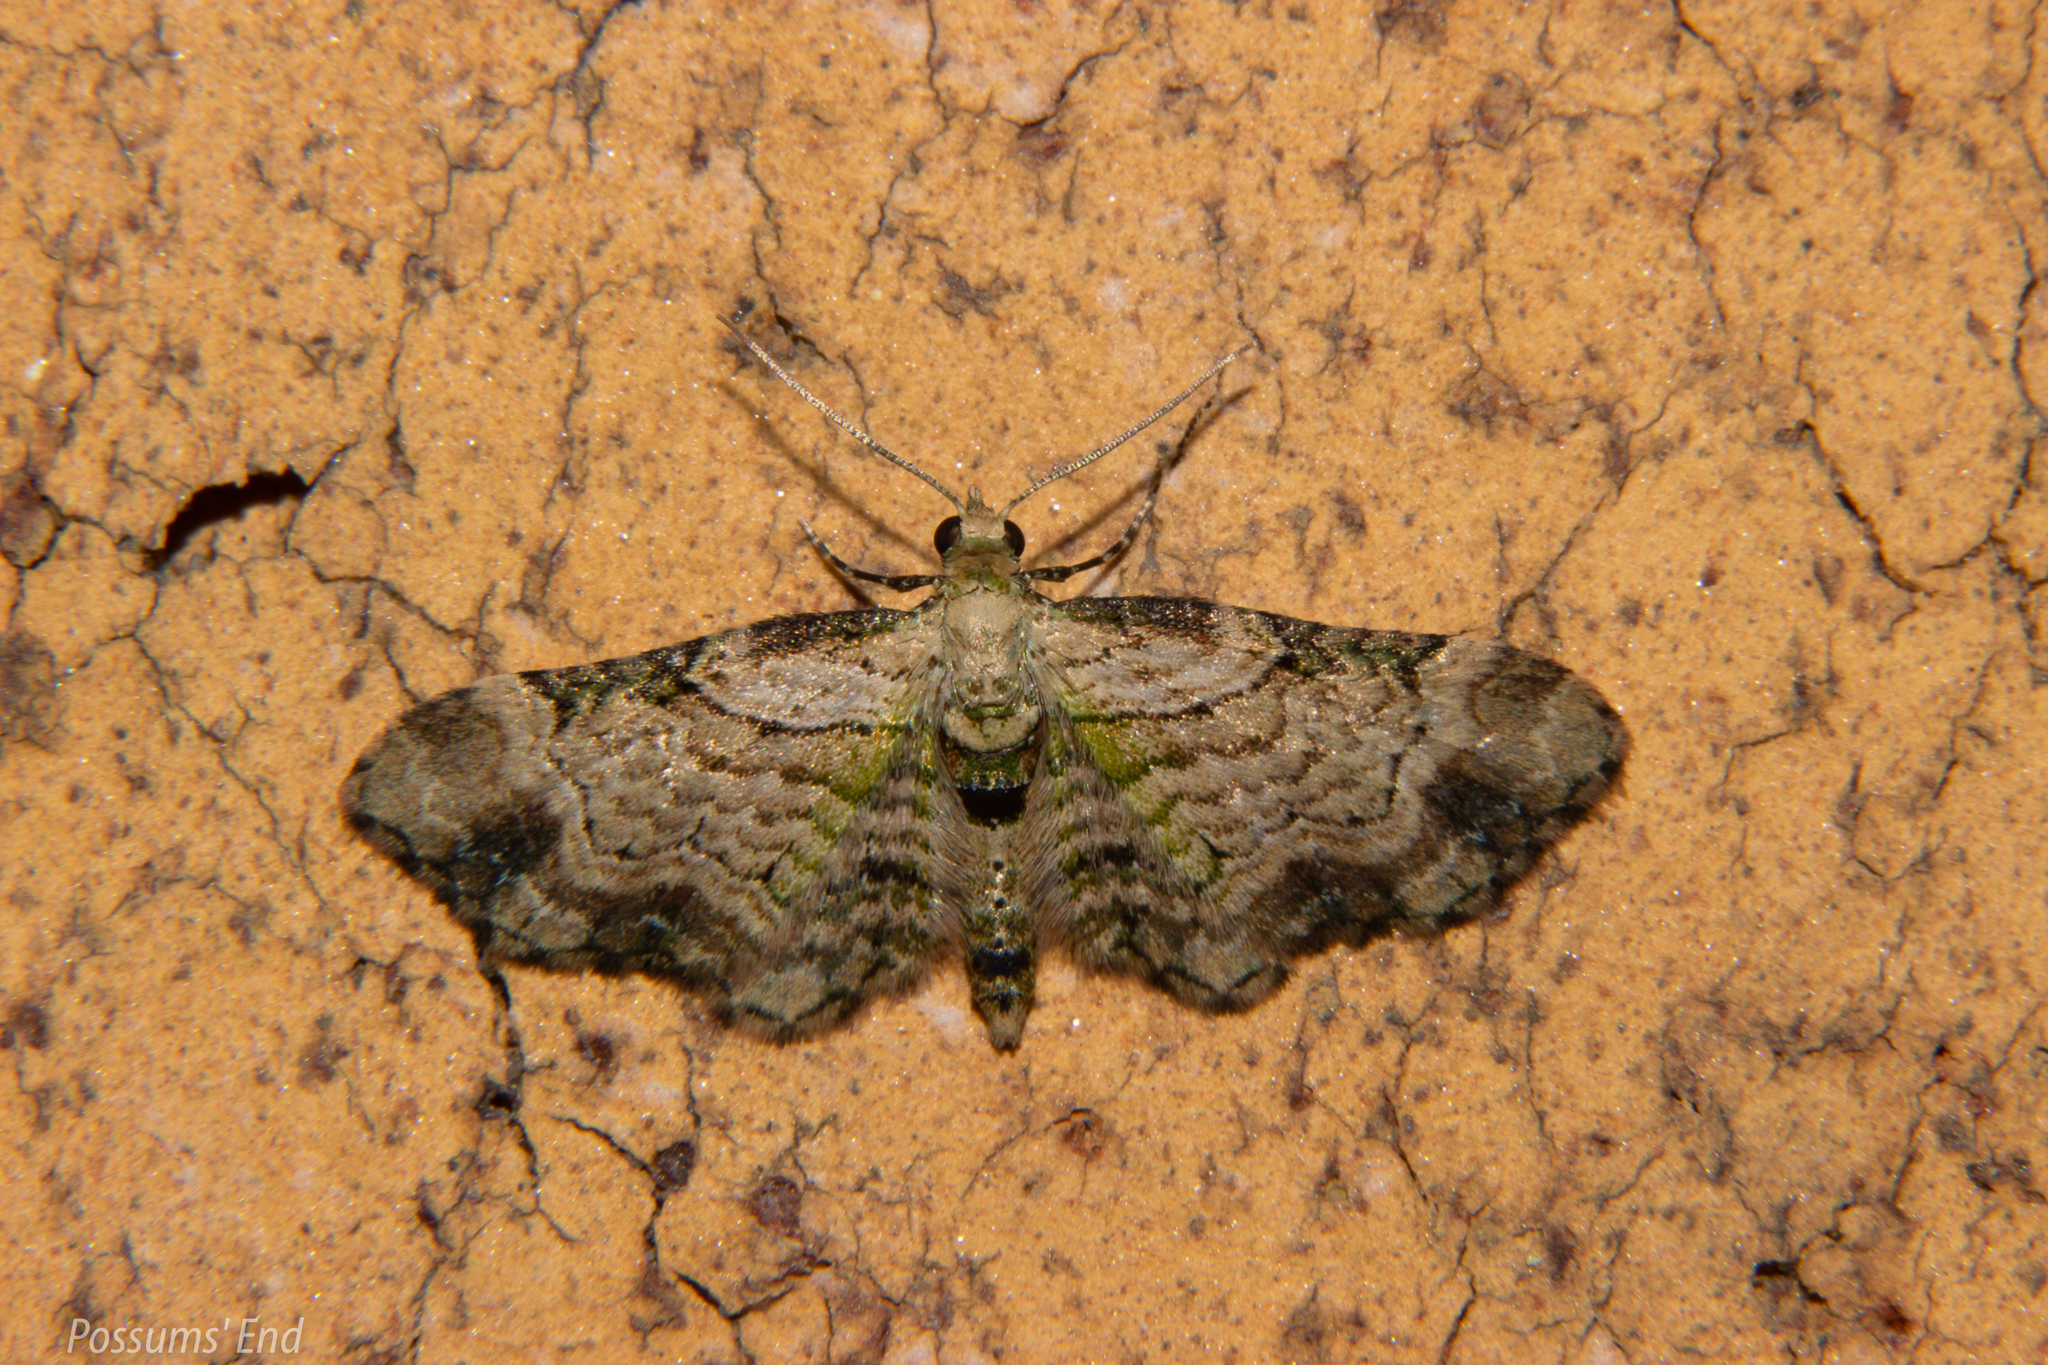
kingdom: Animalia
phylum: Arthropoda
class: Insecta
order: Lepidoptera
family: Geometridae
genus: Chloroclystis
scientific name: Chloroclystis
